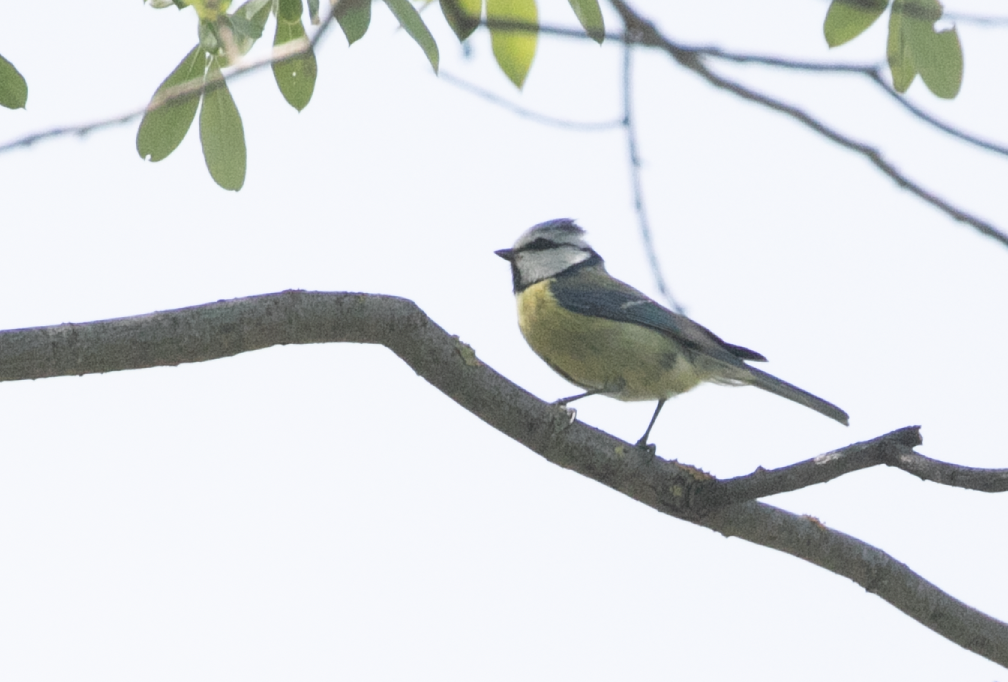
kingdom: Animalia
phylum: Chordata
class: Aves
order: Passeriformes
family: Paridae
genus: Cyanistes
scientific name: Cyanistes caeruleus
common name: Eurasian blue tit
